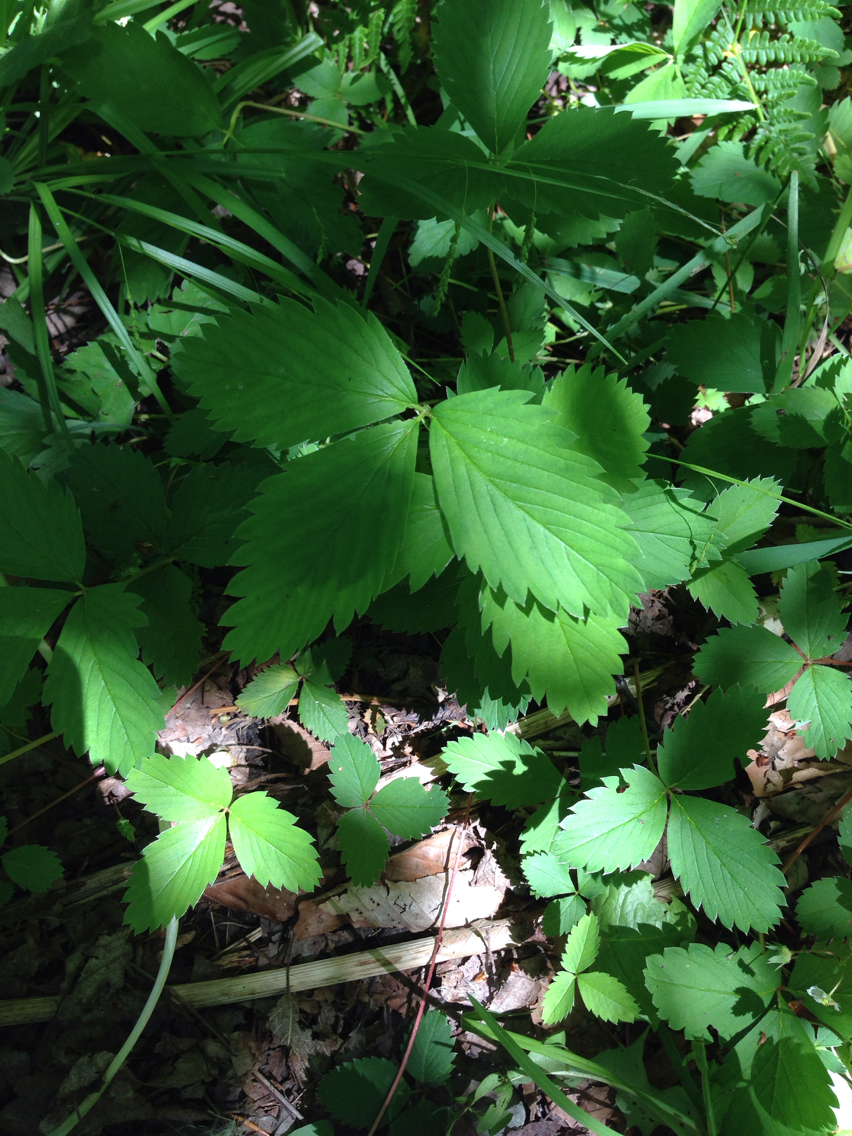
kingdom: Plantae
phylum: Tracheophyta
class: Magnoliopsida
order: Rosales
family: Rosaceae
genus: Fragaria
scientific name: Fragaria virginiana
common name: Thickleaved wild strawberry
